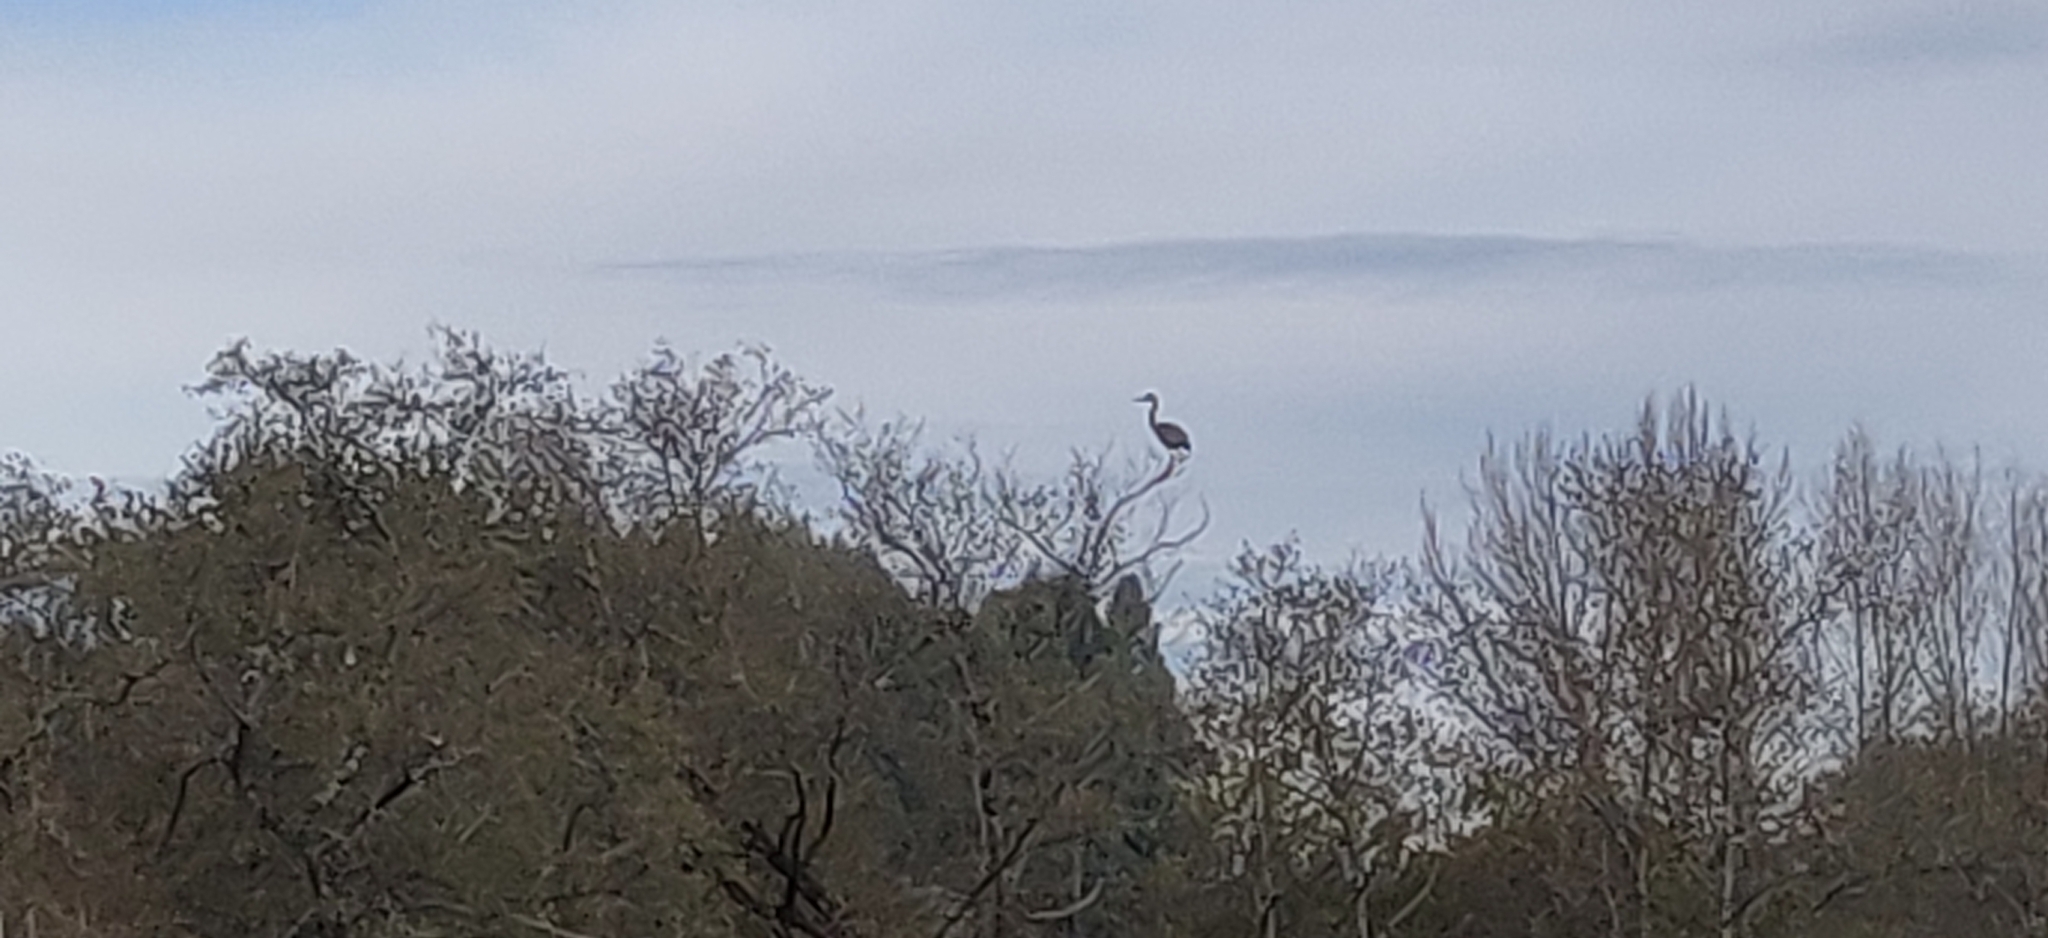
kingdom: Animalia
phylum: Chordata
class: Aves
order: Pelecaniformes
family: Ardeidae
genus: Ardea
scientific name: Ardea cinerea
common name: Grey heron
